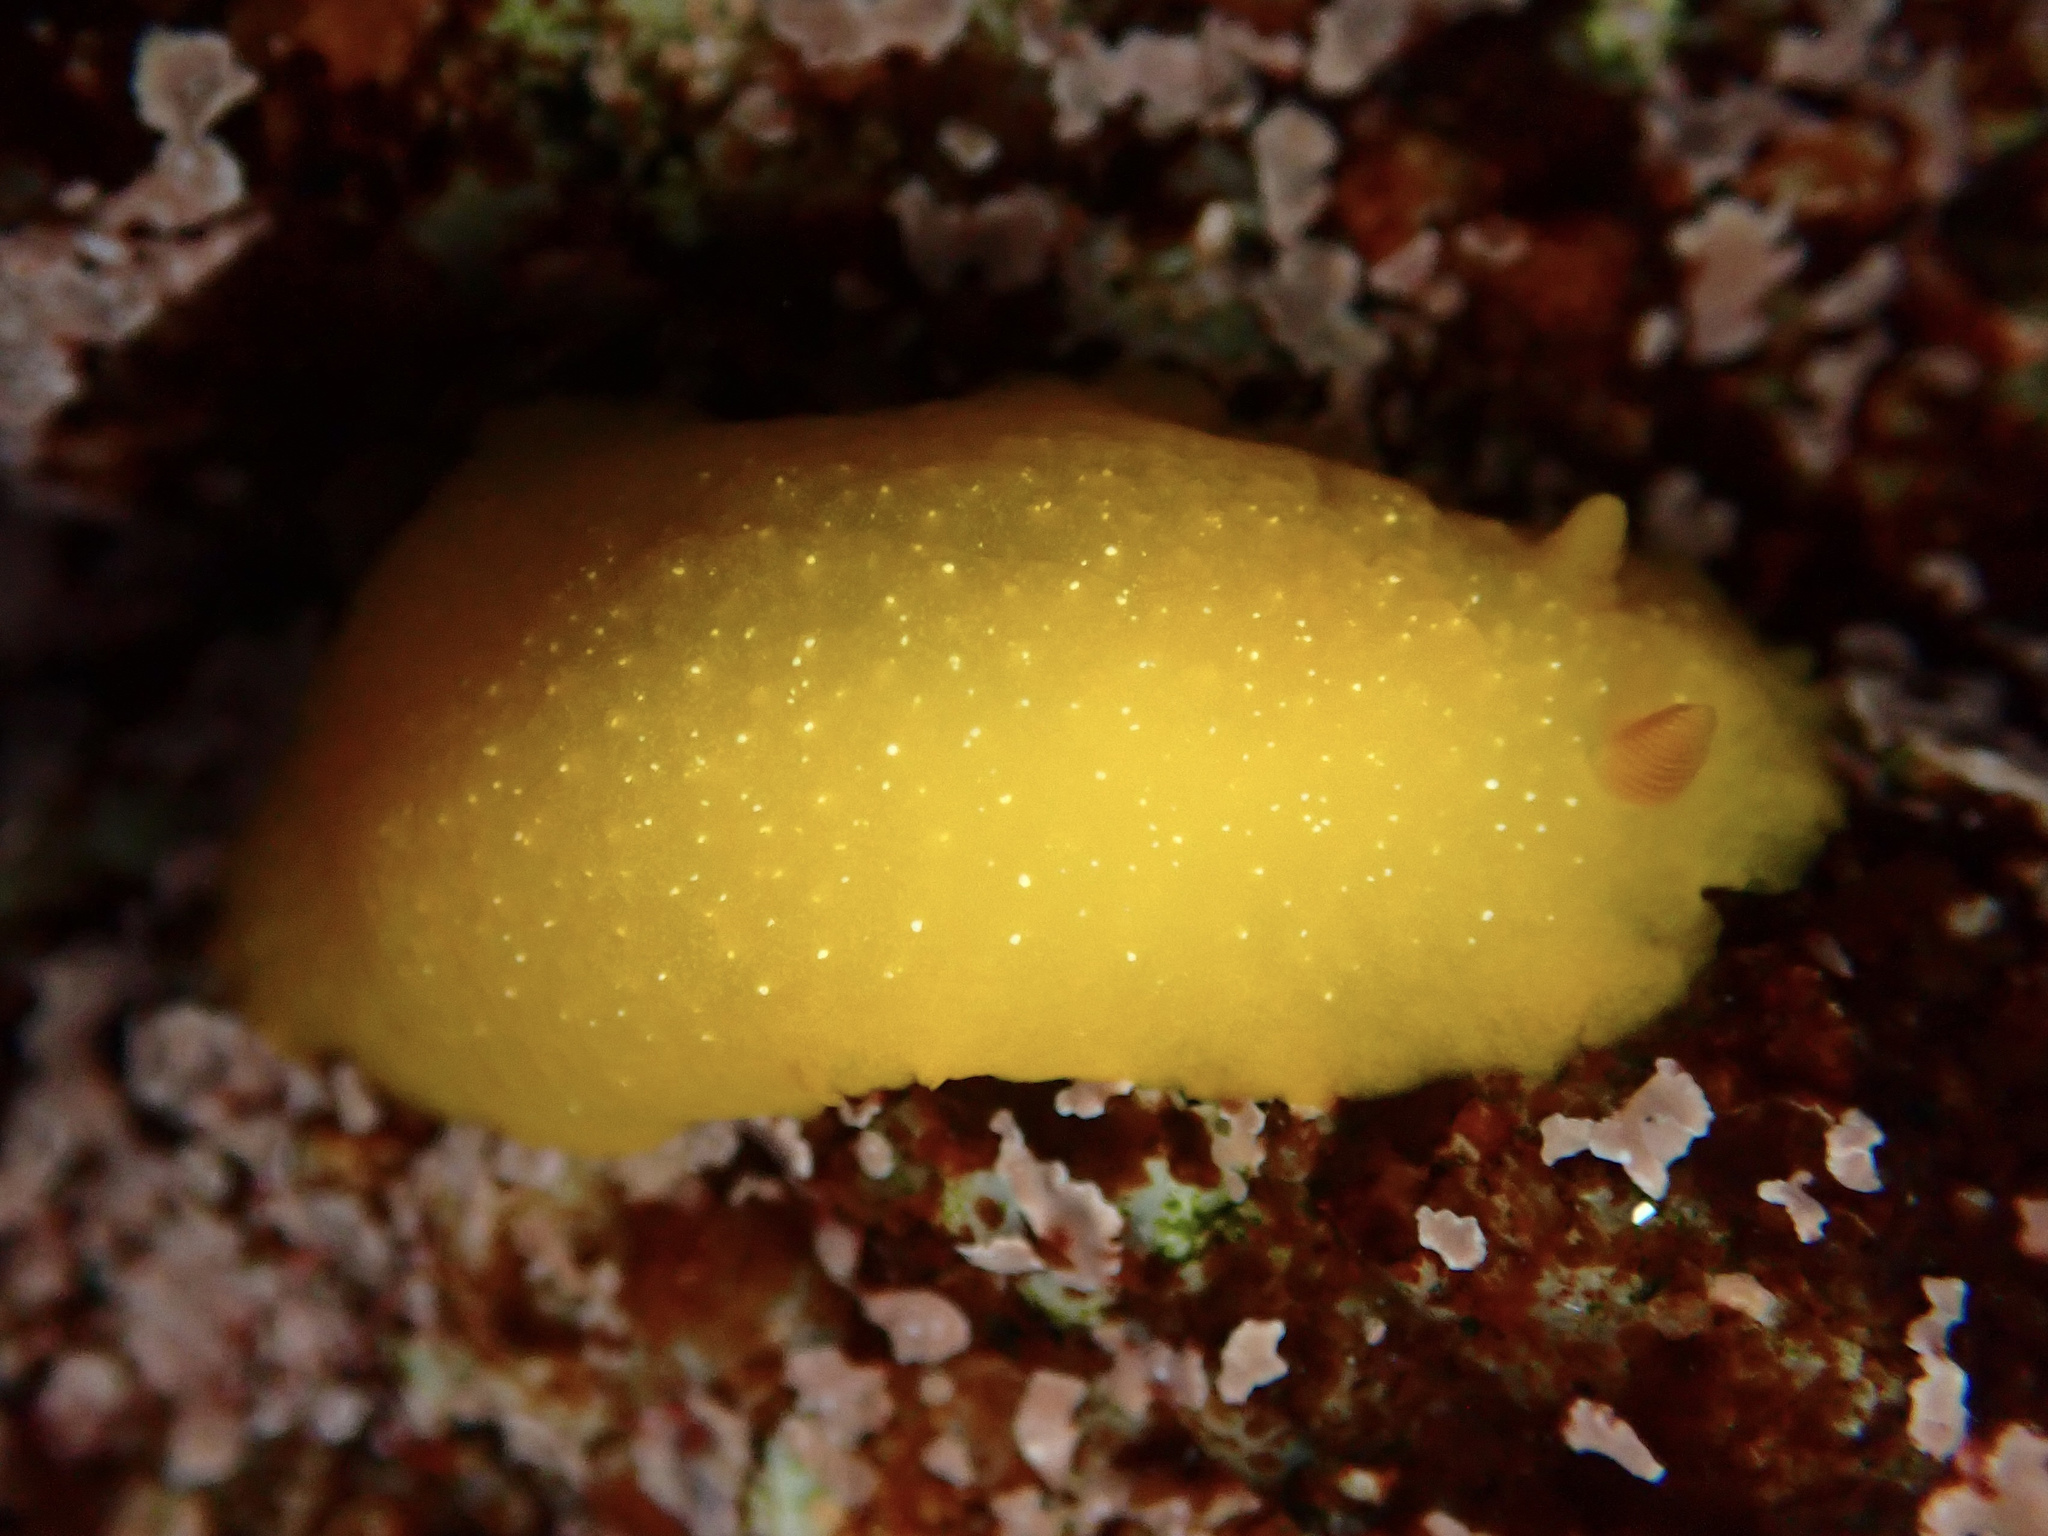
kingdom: Animalia
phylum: Mollusca
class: Gastropoda
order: Nudibranchia
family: Dendrodorididae
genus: Doriopsilla
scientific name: Doriopsilla fulva
